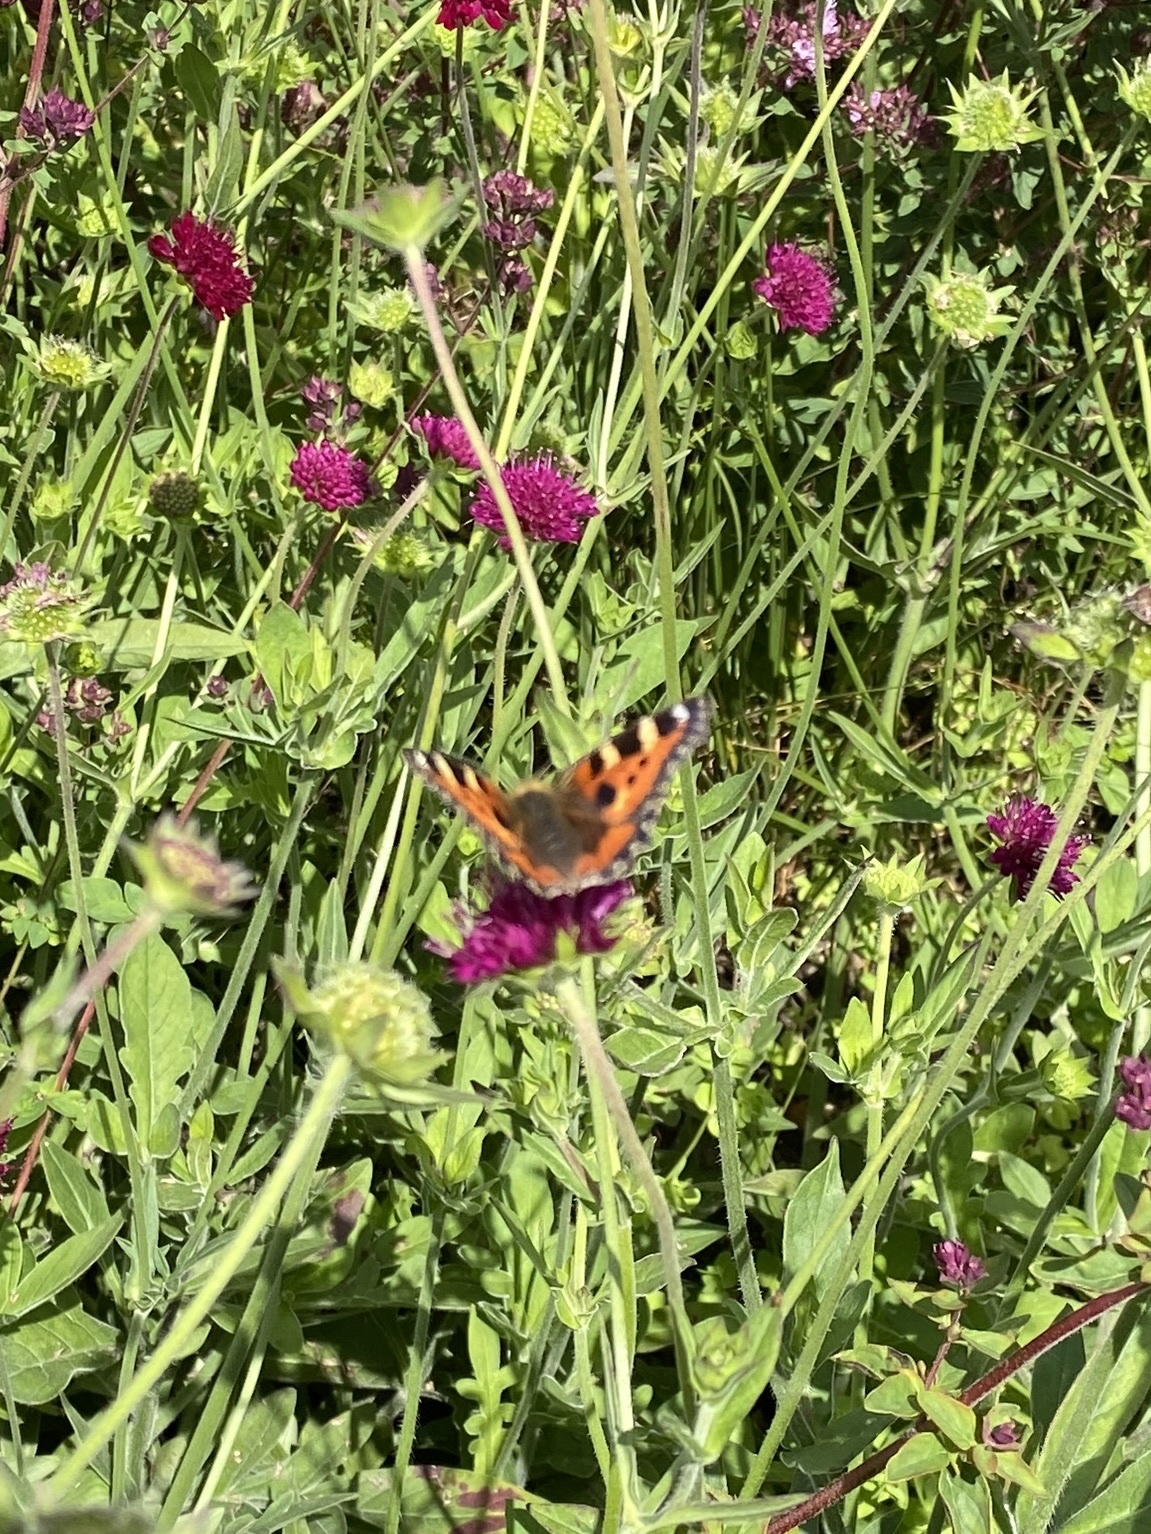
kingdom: Animalia
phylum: Arthropoda
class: Insecta
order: Lepidoptera
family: Nymphalidae
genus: Aglais
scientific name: Aglais urticae
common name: Small tortoiseshell
